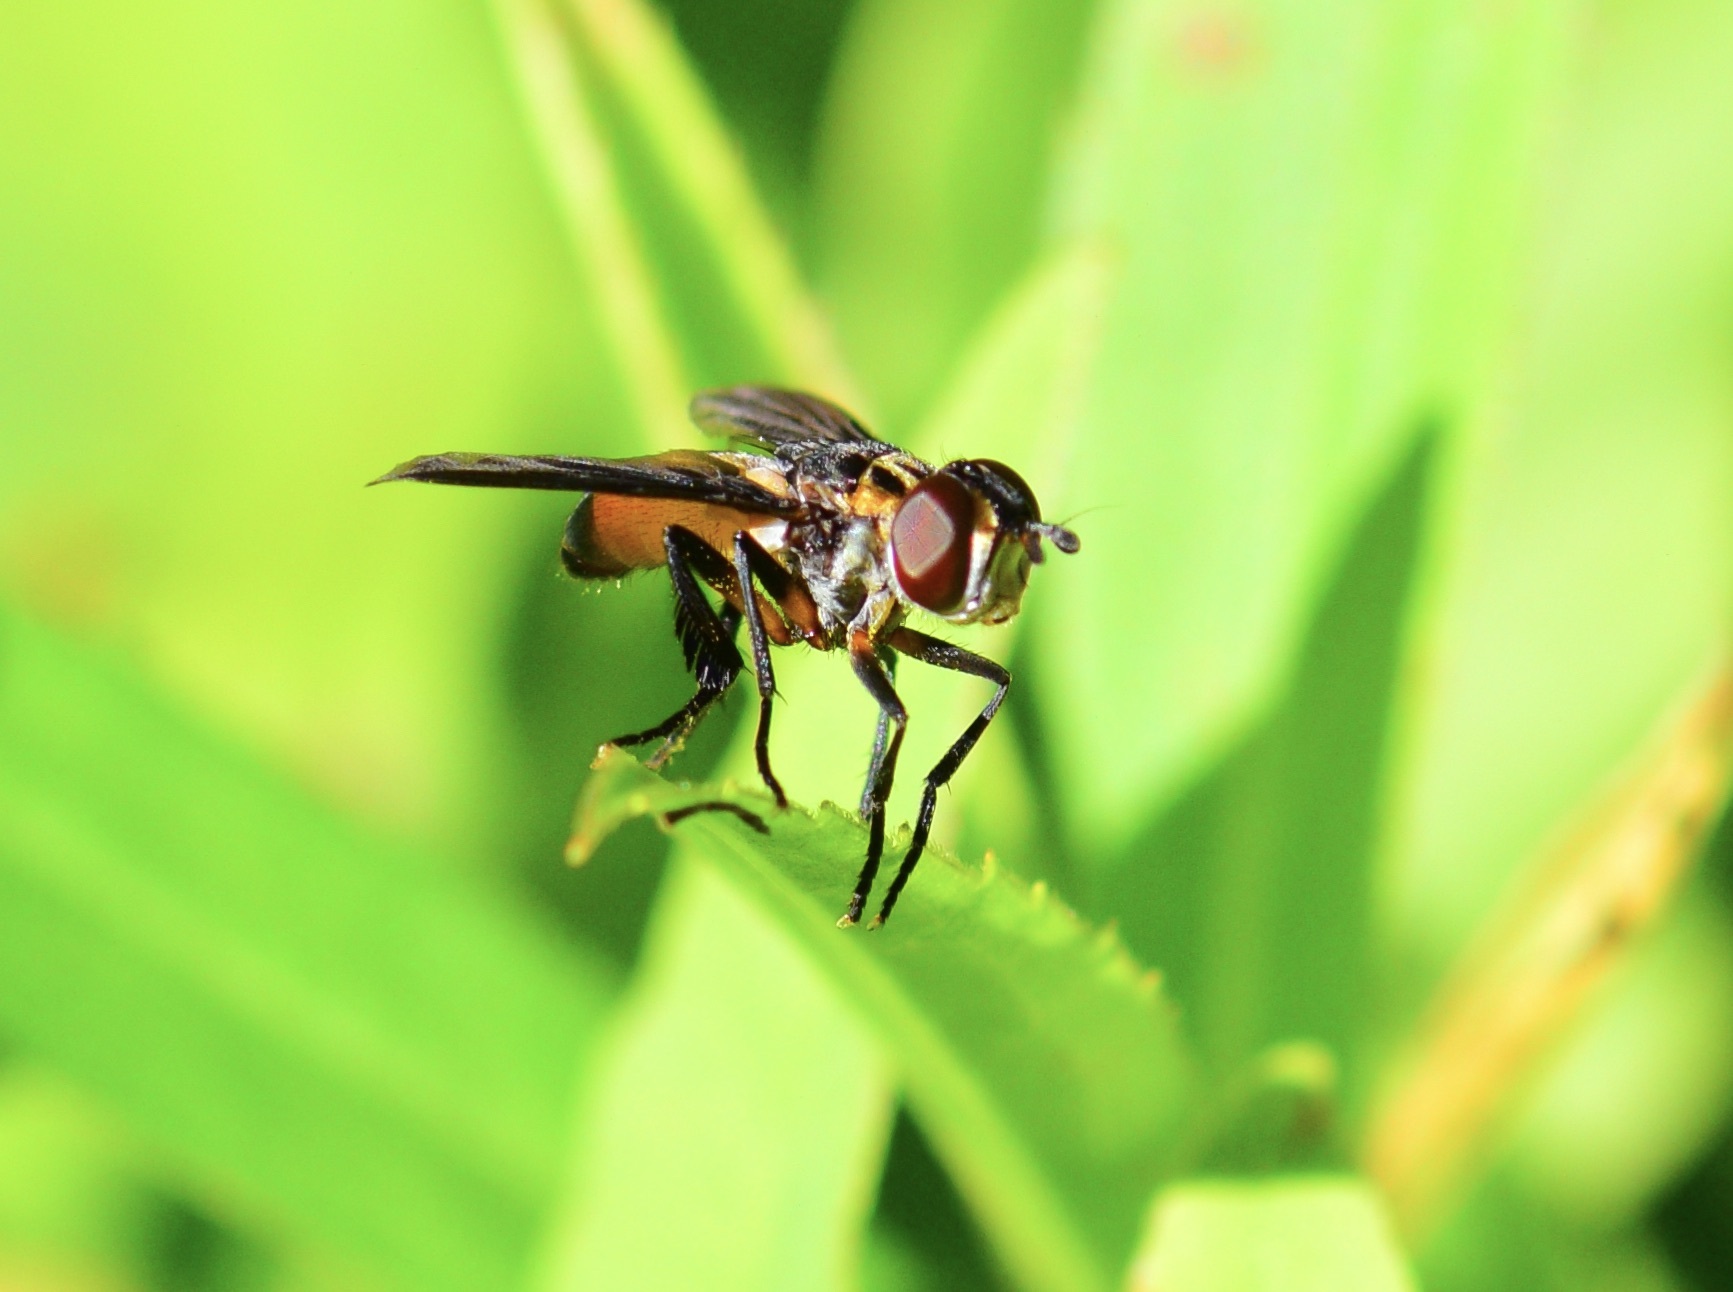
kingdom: Animalia
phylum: Arthropoda
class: Insecta
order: Diptera
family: Tachinidae
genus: Trichopoda
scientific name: Trichopoda pennipes
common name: Tachinid fly
